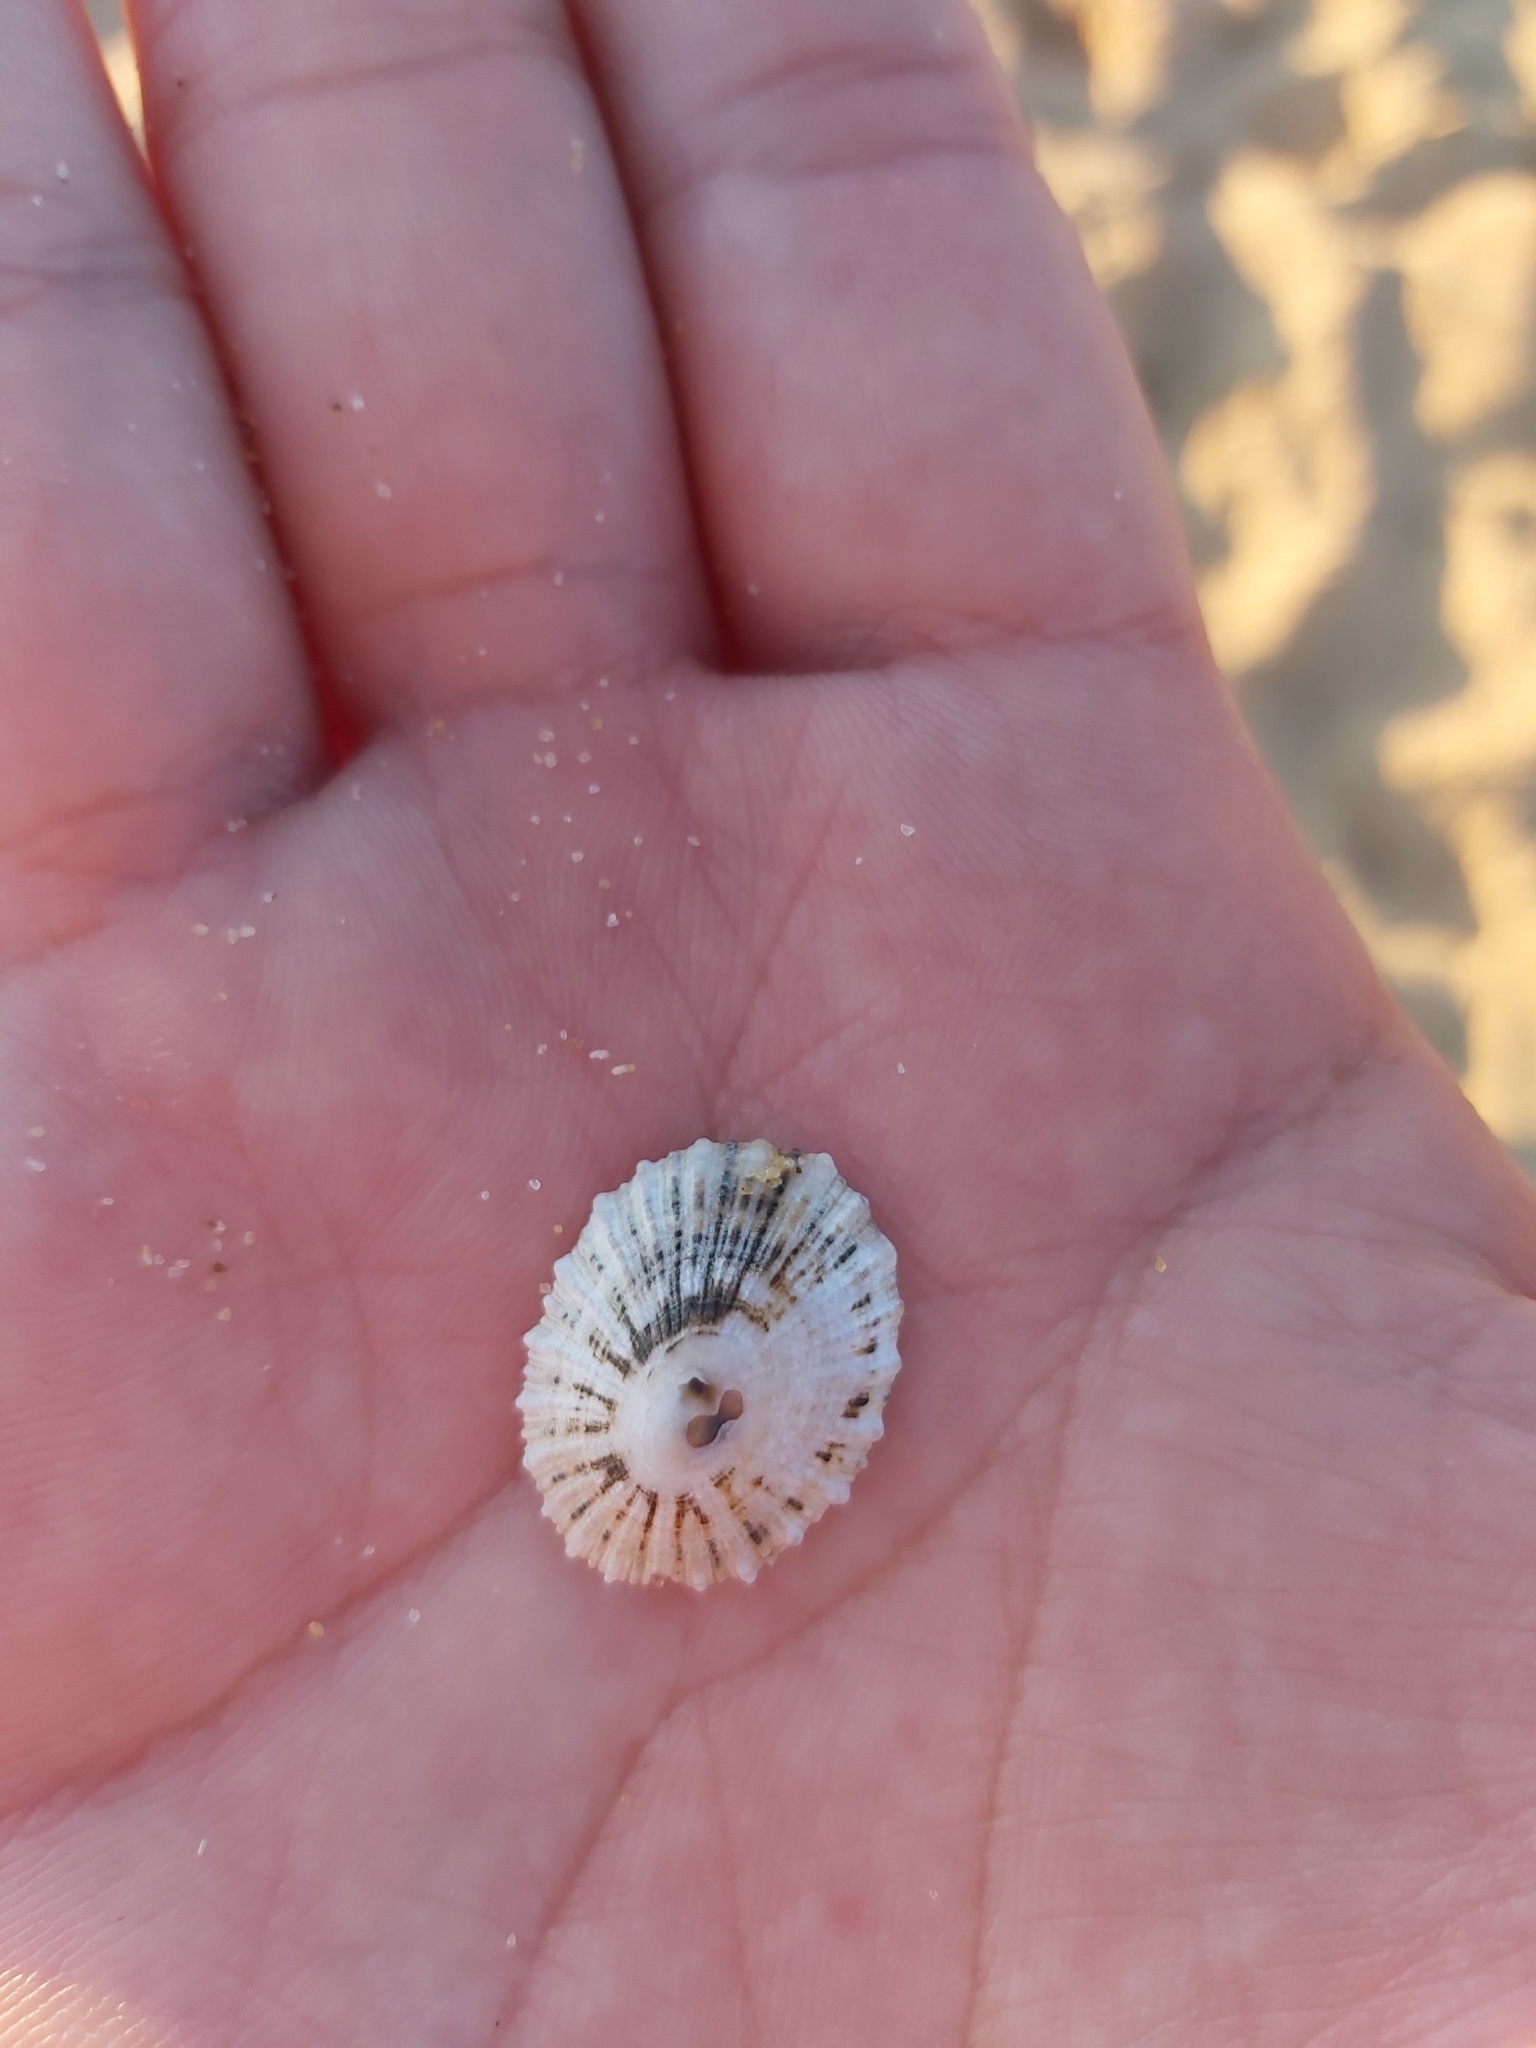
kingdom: Animalia
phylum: Mollusca
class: Gastropoda
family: Patellidae
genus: Scutellastra
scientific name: Scutellastra peronii
